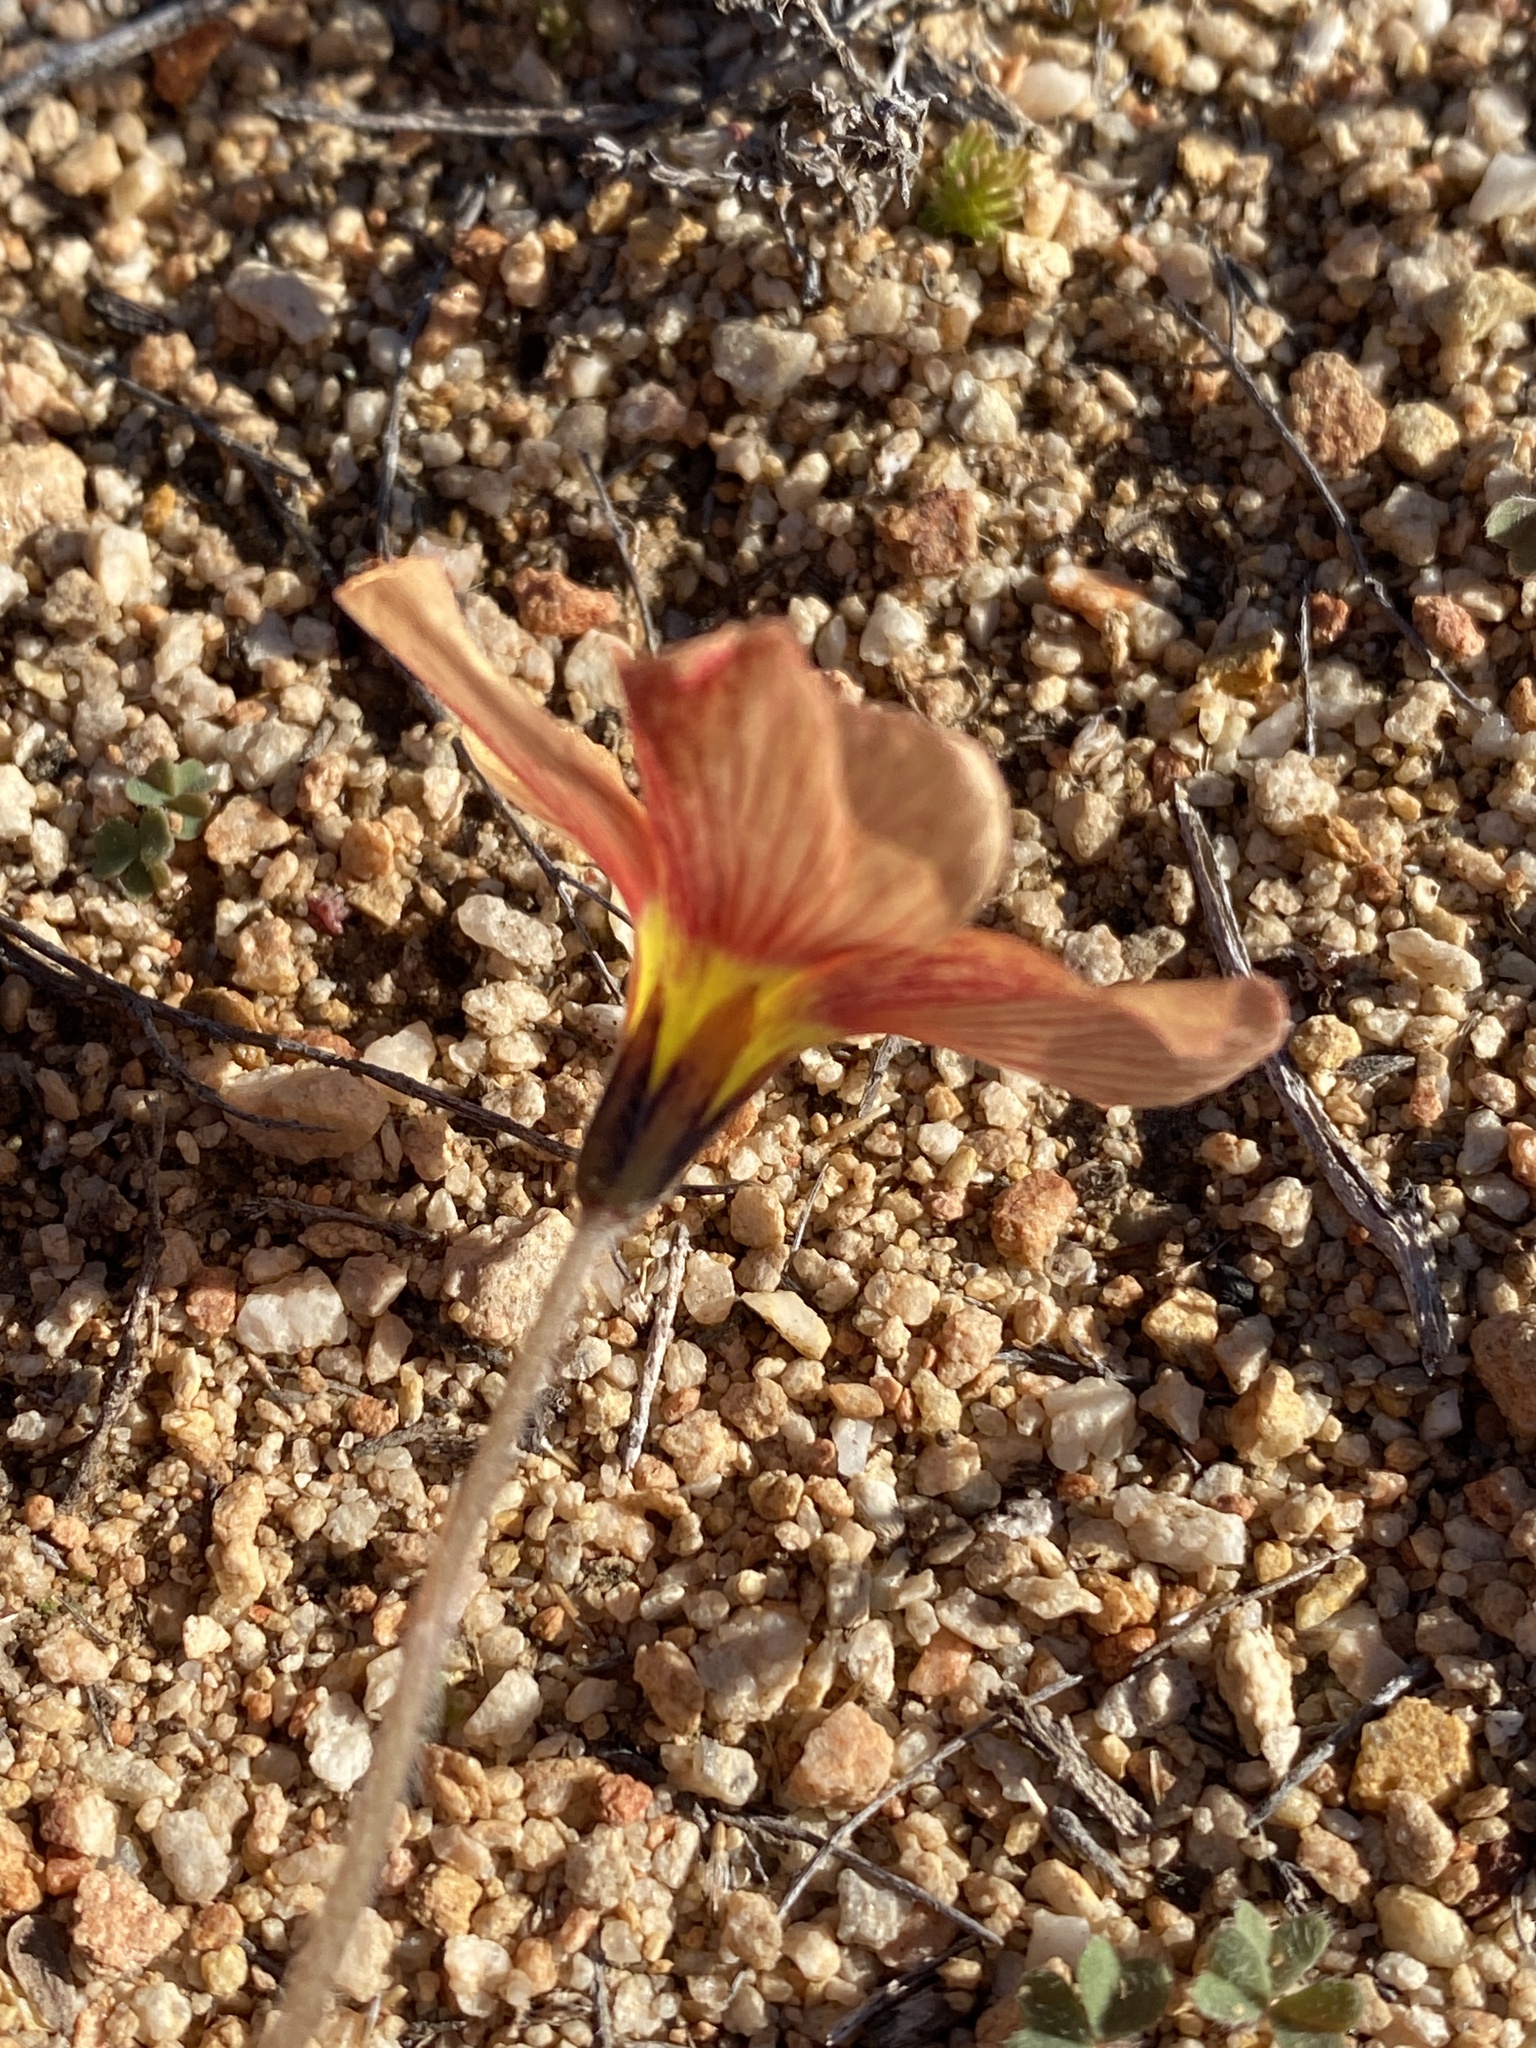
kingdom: Plantae
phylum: Tracheophyta
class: Magnoliopsida
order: Oxalidales
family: Oxalidaceae
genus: Oxalis
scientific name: Oxalis obtusa
